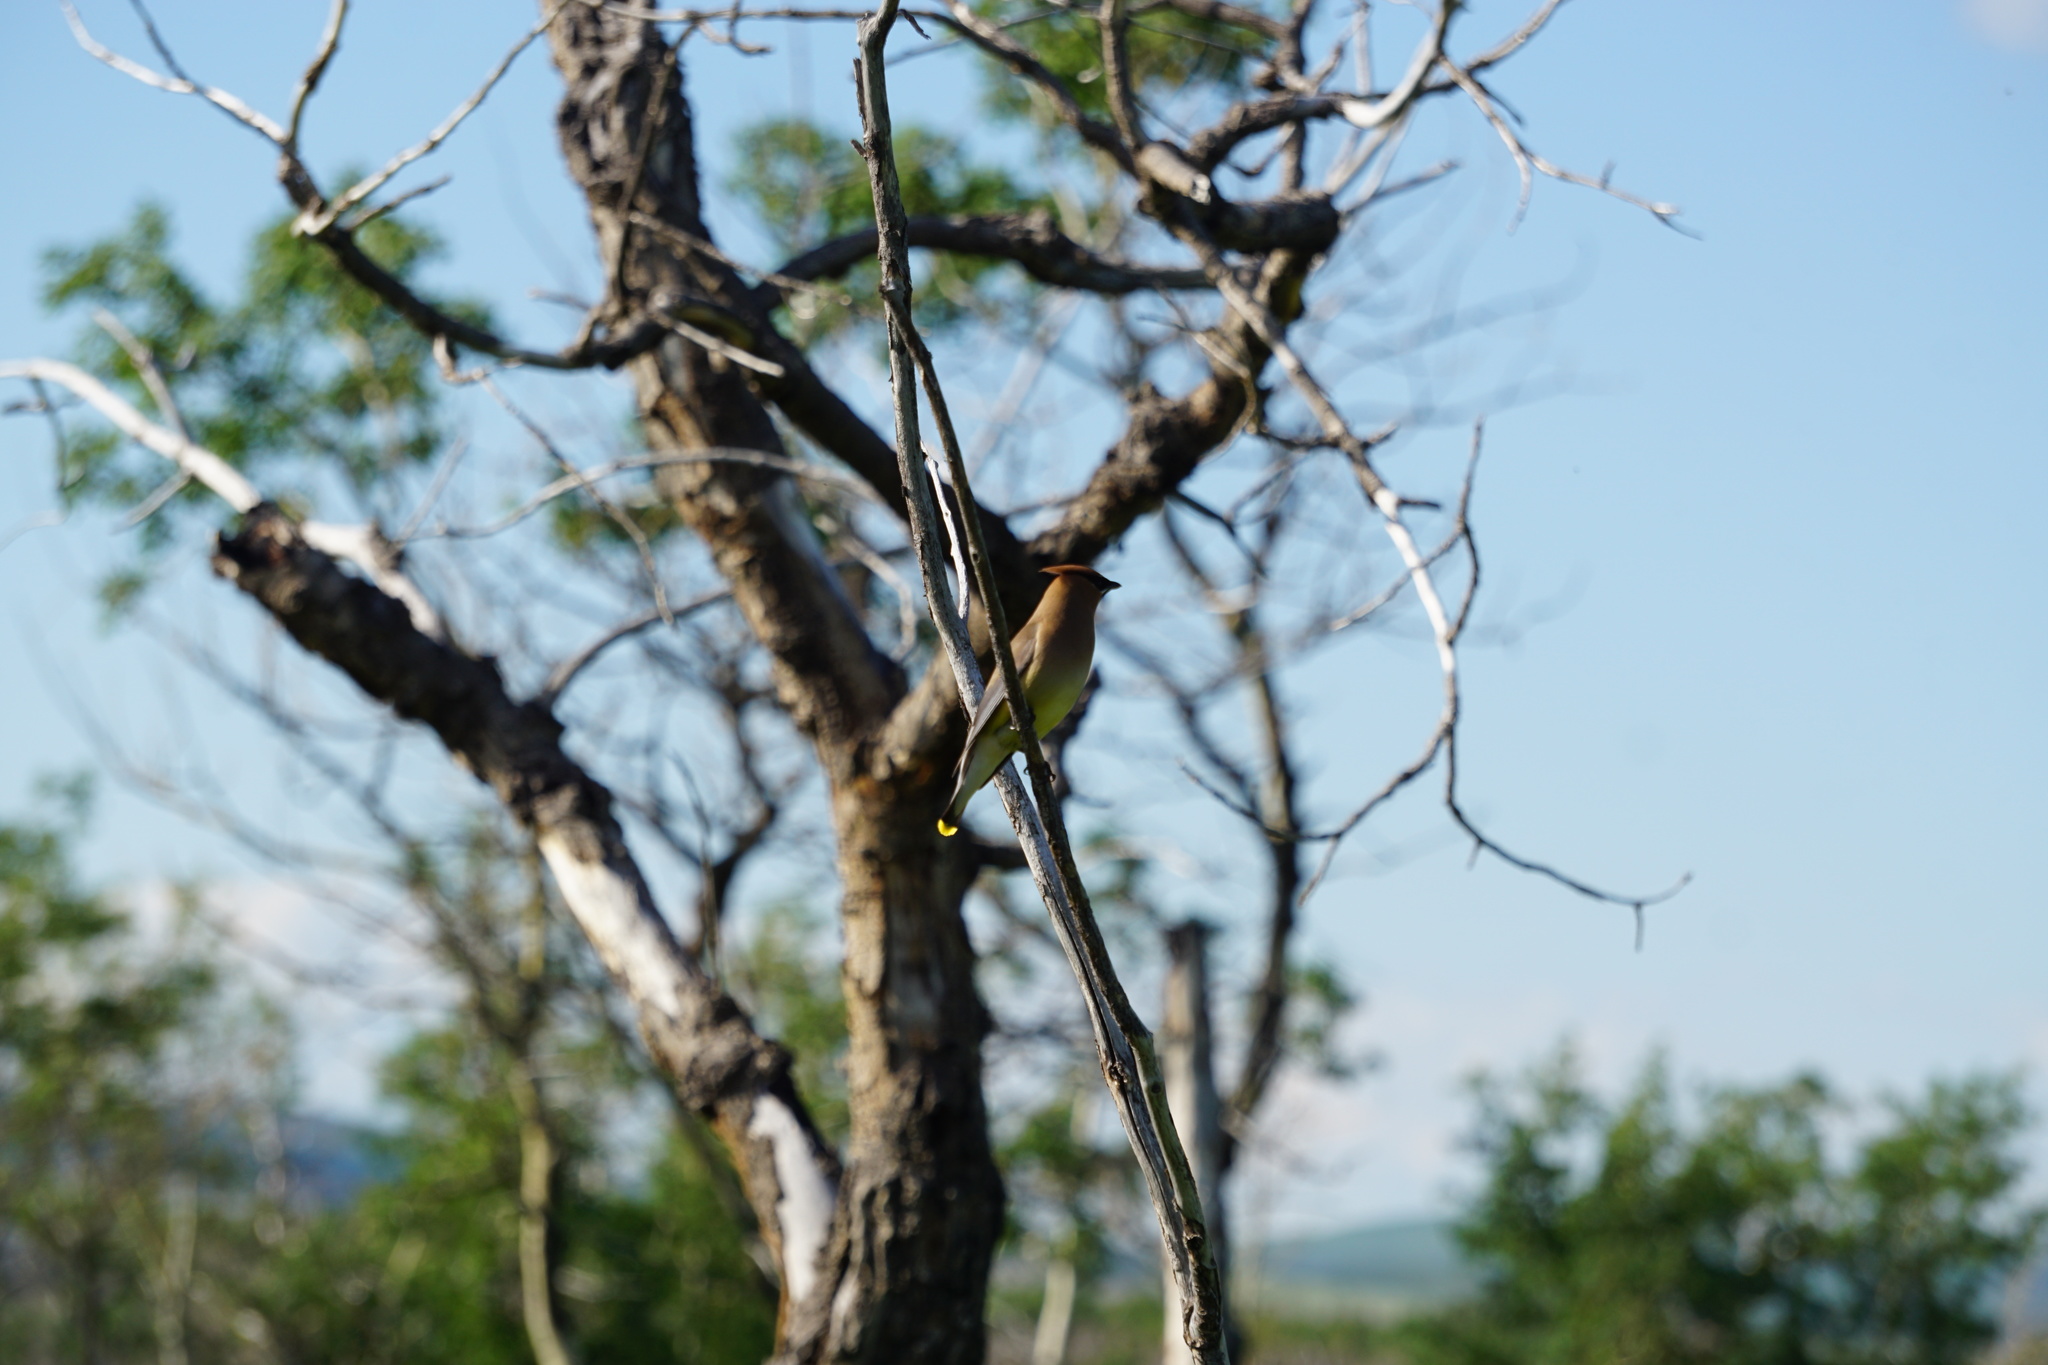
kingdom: Animalia
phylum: Chordata
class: Aves
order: Passeriformes
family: Bombycillidae
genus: Bombycilla
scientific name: Bombycilla cedrorum
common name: Cedar waxwing
